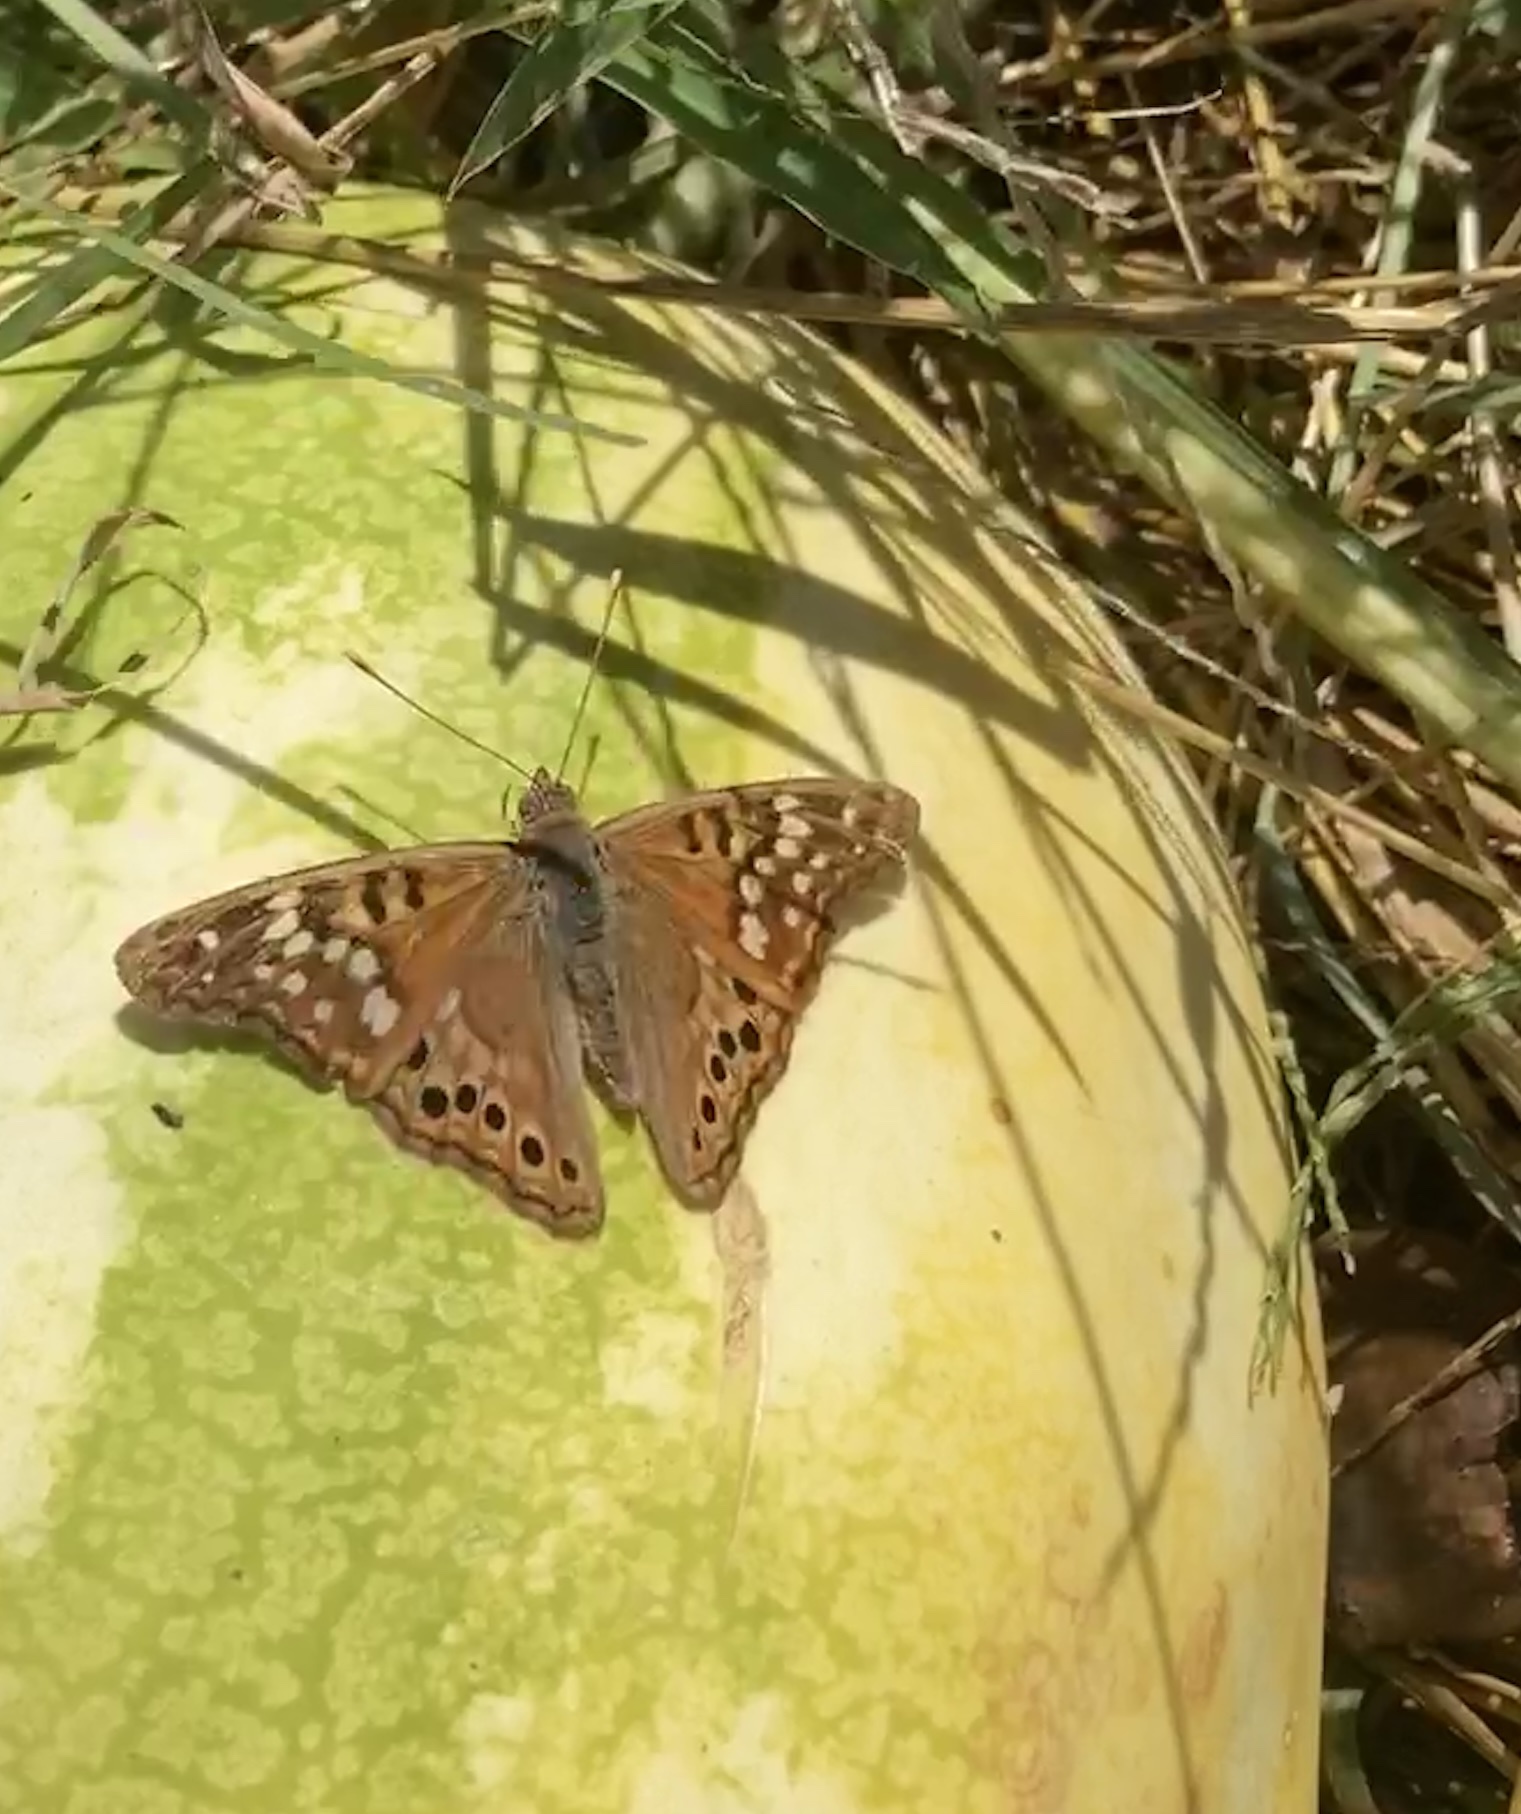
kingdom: Animalia
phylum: Arthropoda
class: Insecta
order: Lepidoptera
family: Nymphalidae
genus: Asterocampa
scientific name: Asterocampa clyton
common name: Tawny emperor
